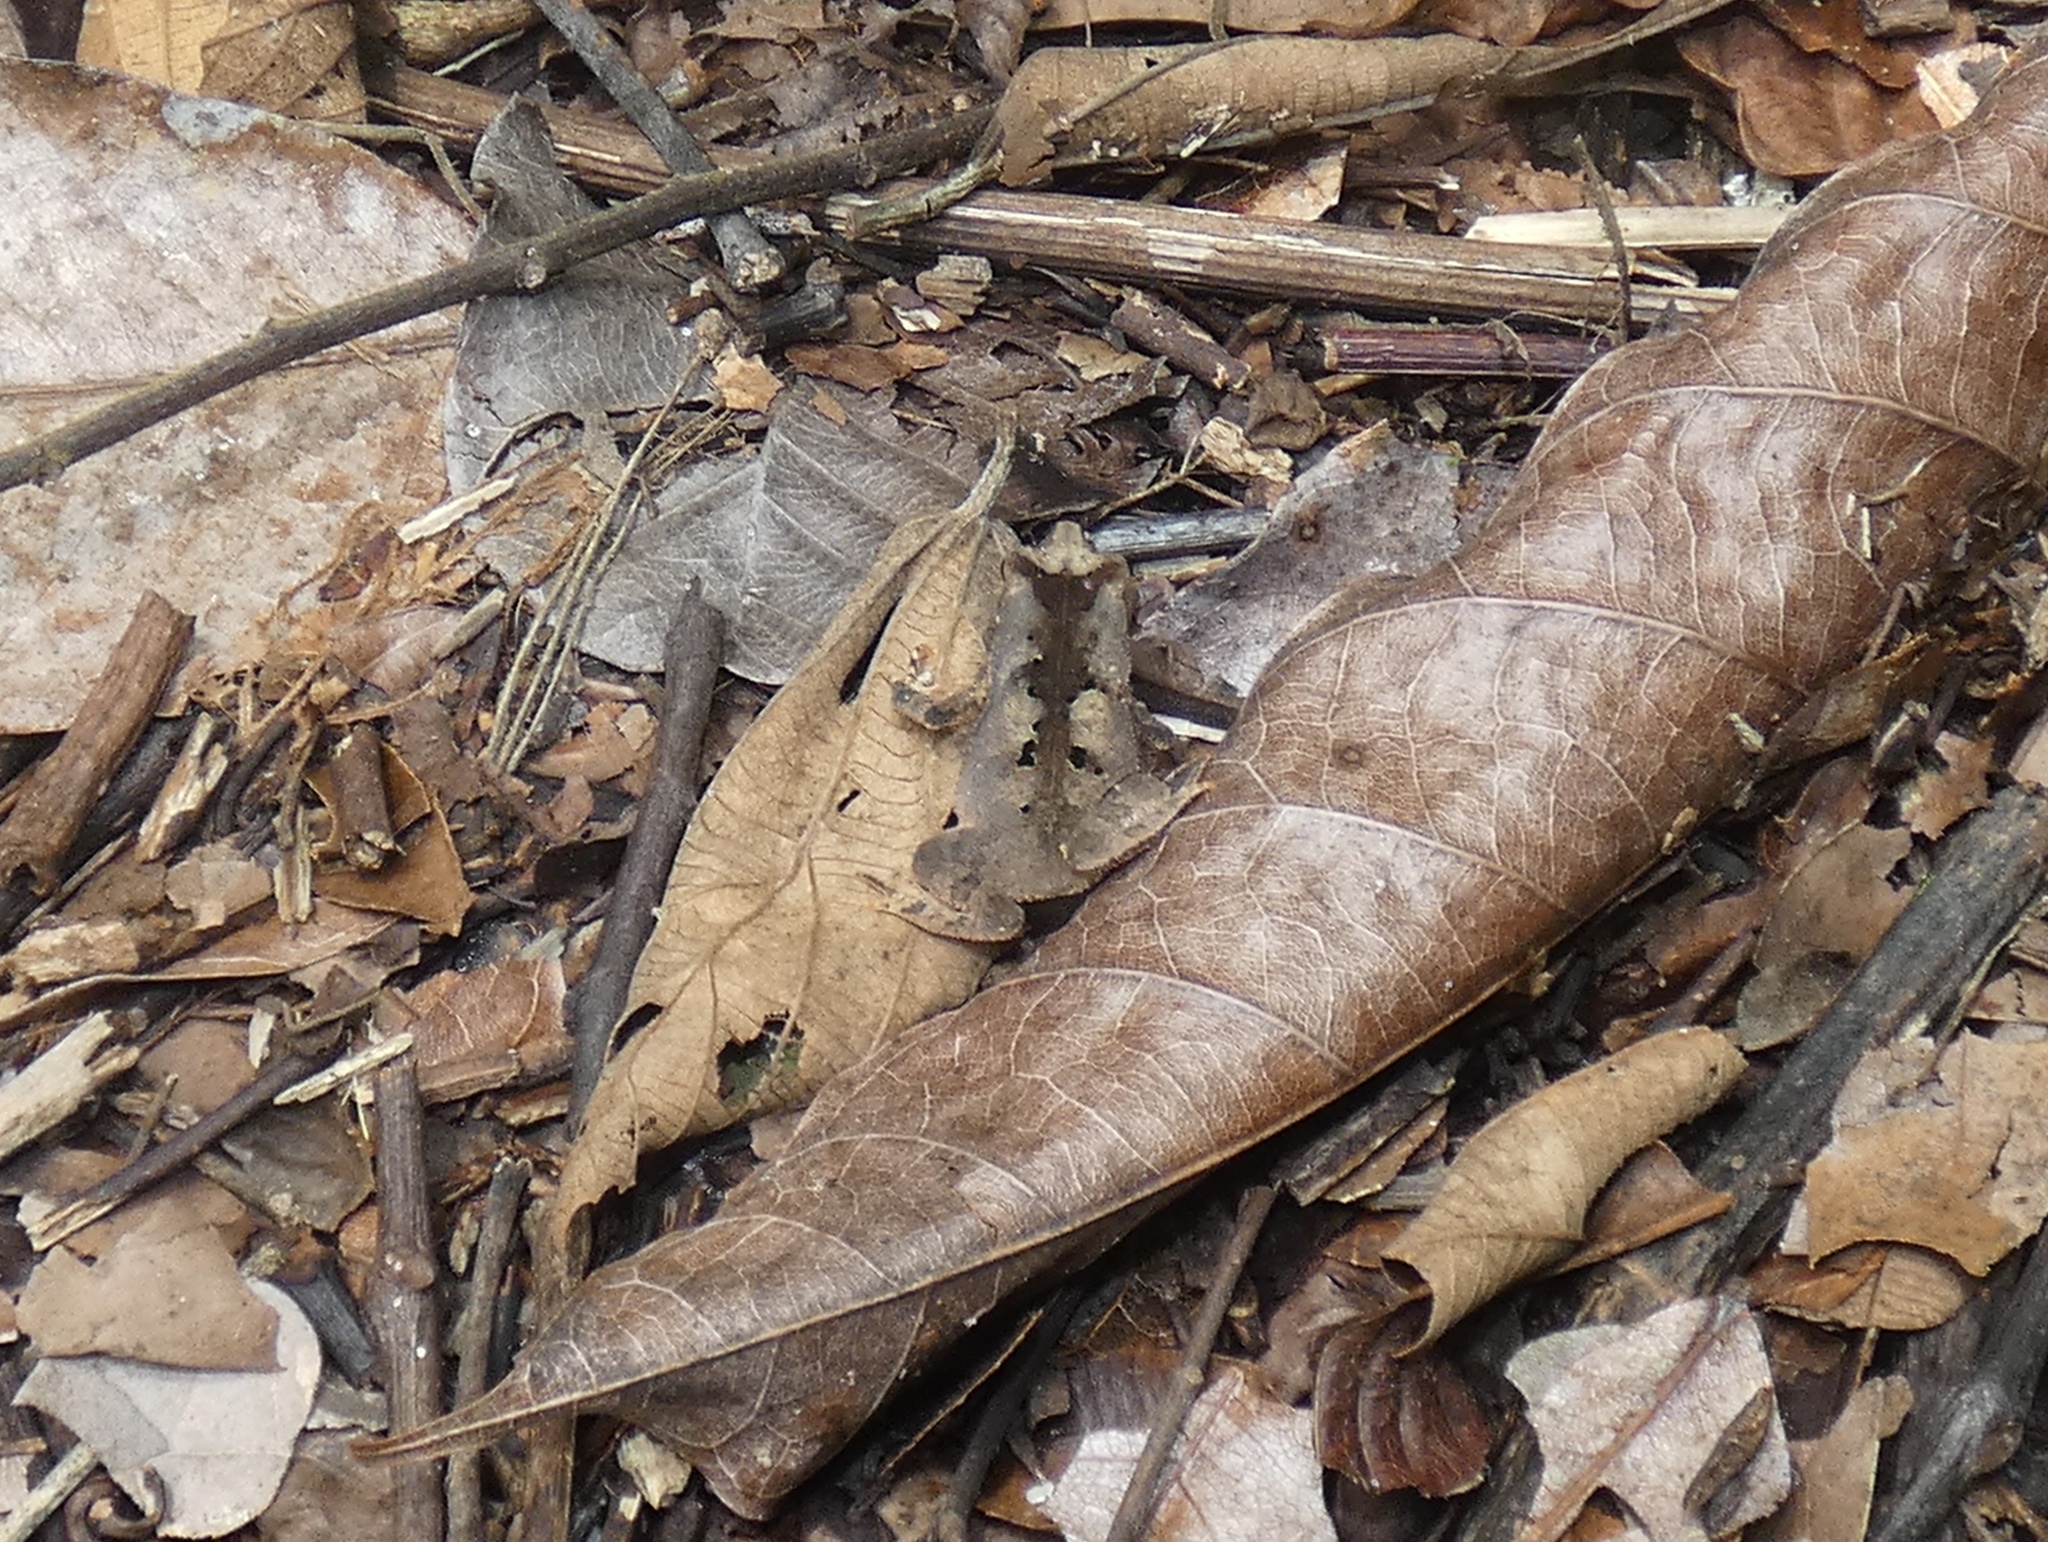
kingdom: Animalia
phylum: Chordata
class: Amphibia
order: Anura
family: Bufonidae
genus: Rhinella
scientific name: Rhinella alata
